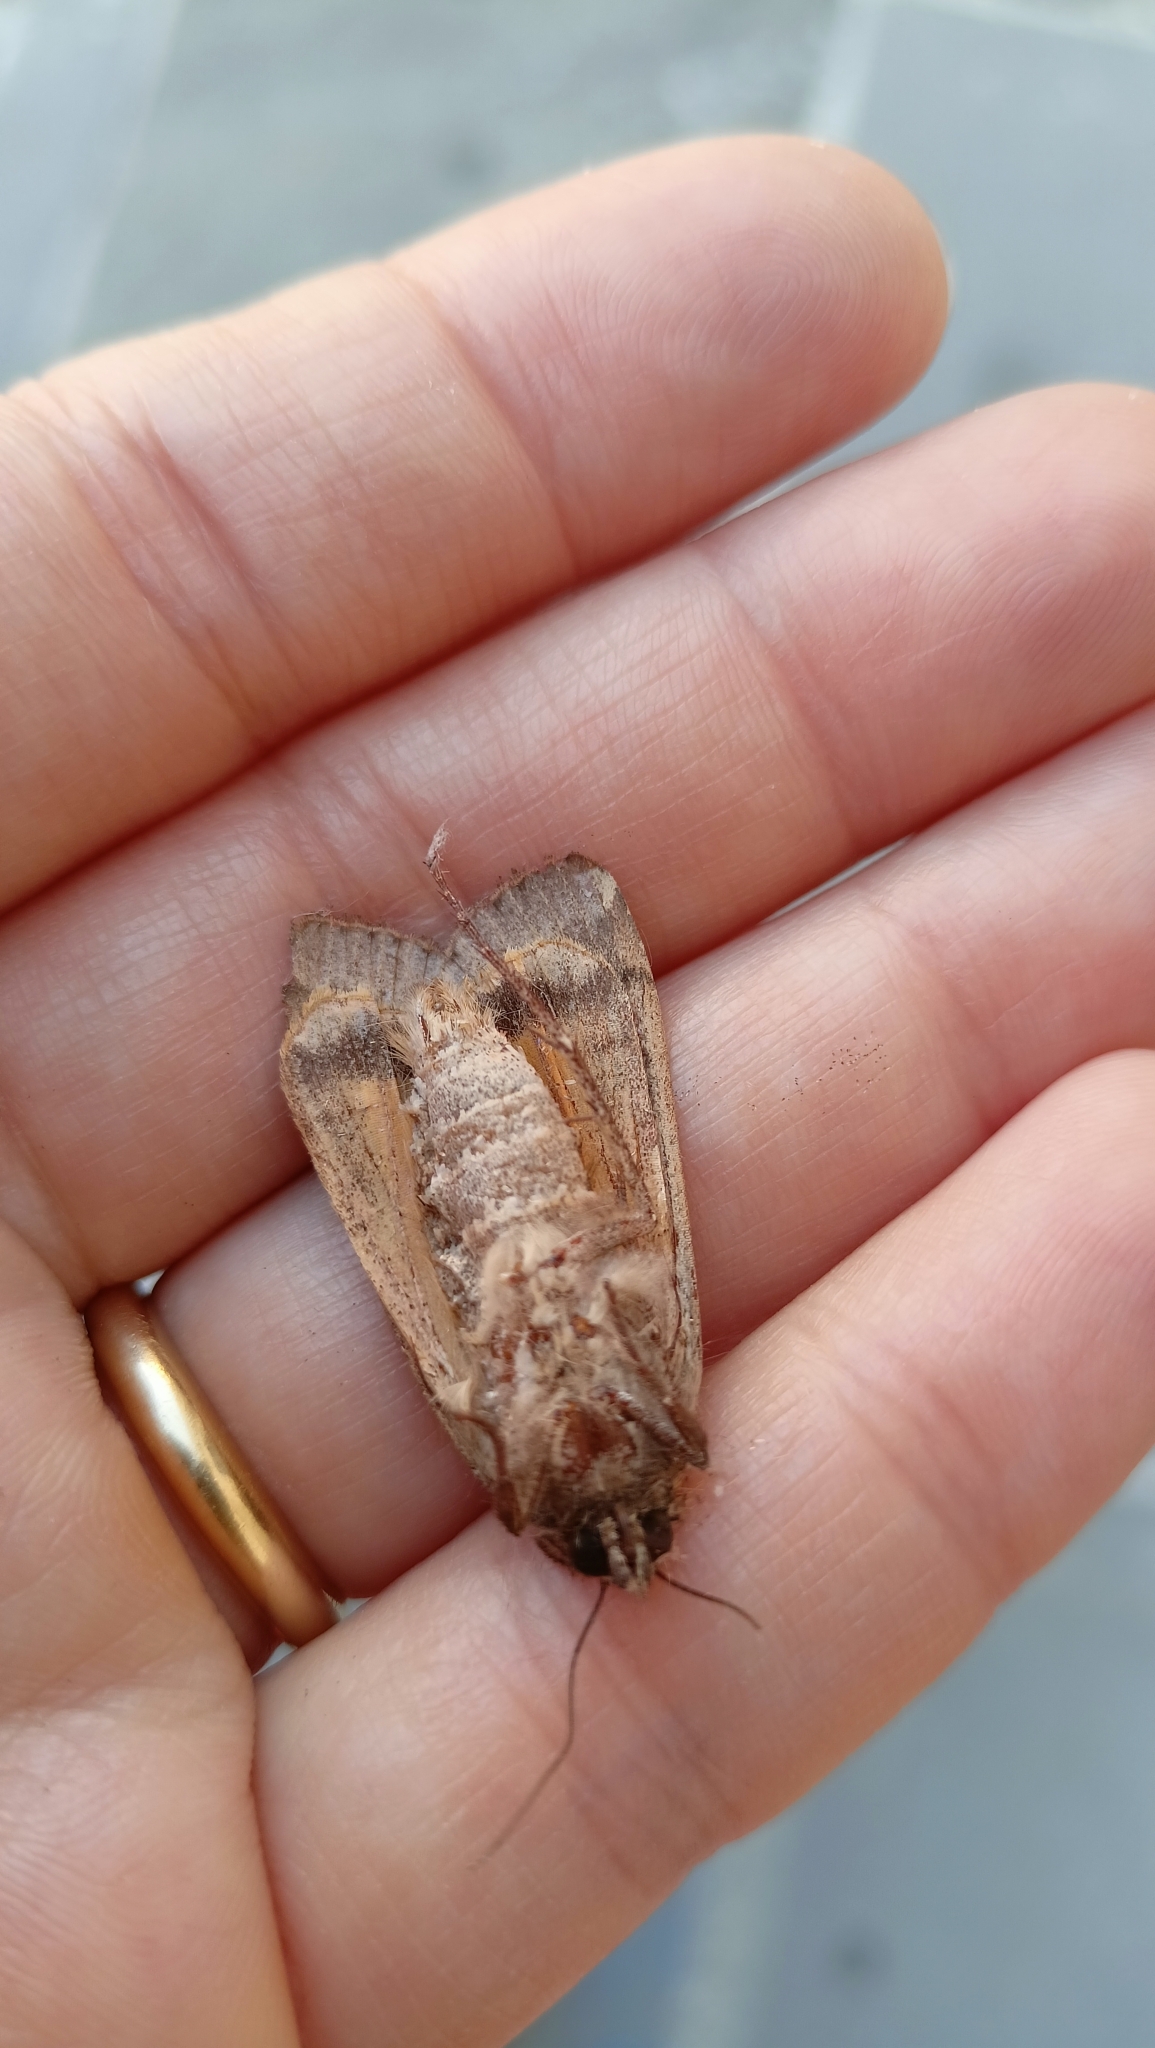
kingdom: Animalia
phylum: Arthropoda
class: Insecta
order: Lepidoptera
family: Noctuidae
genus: Noctua
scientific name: Noctua pronuba
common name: Large yellow underwing
